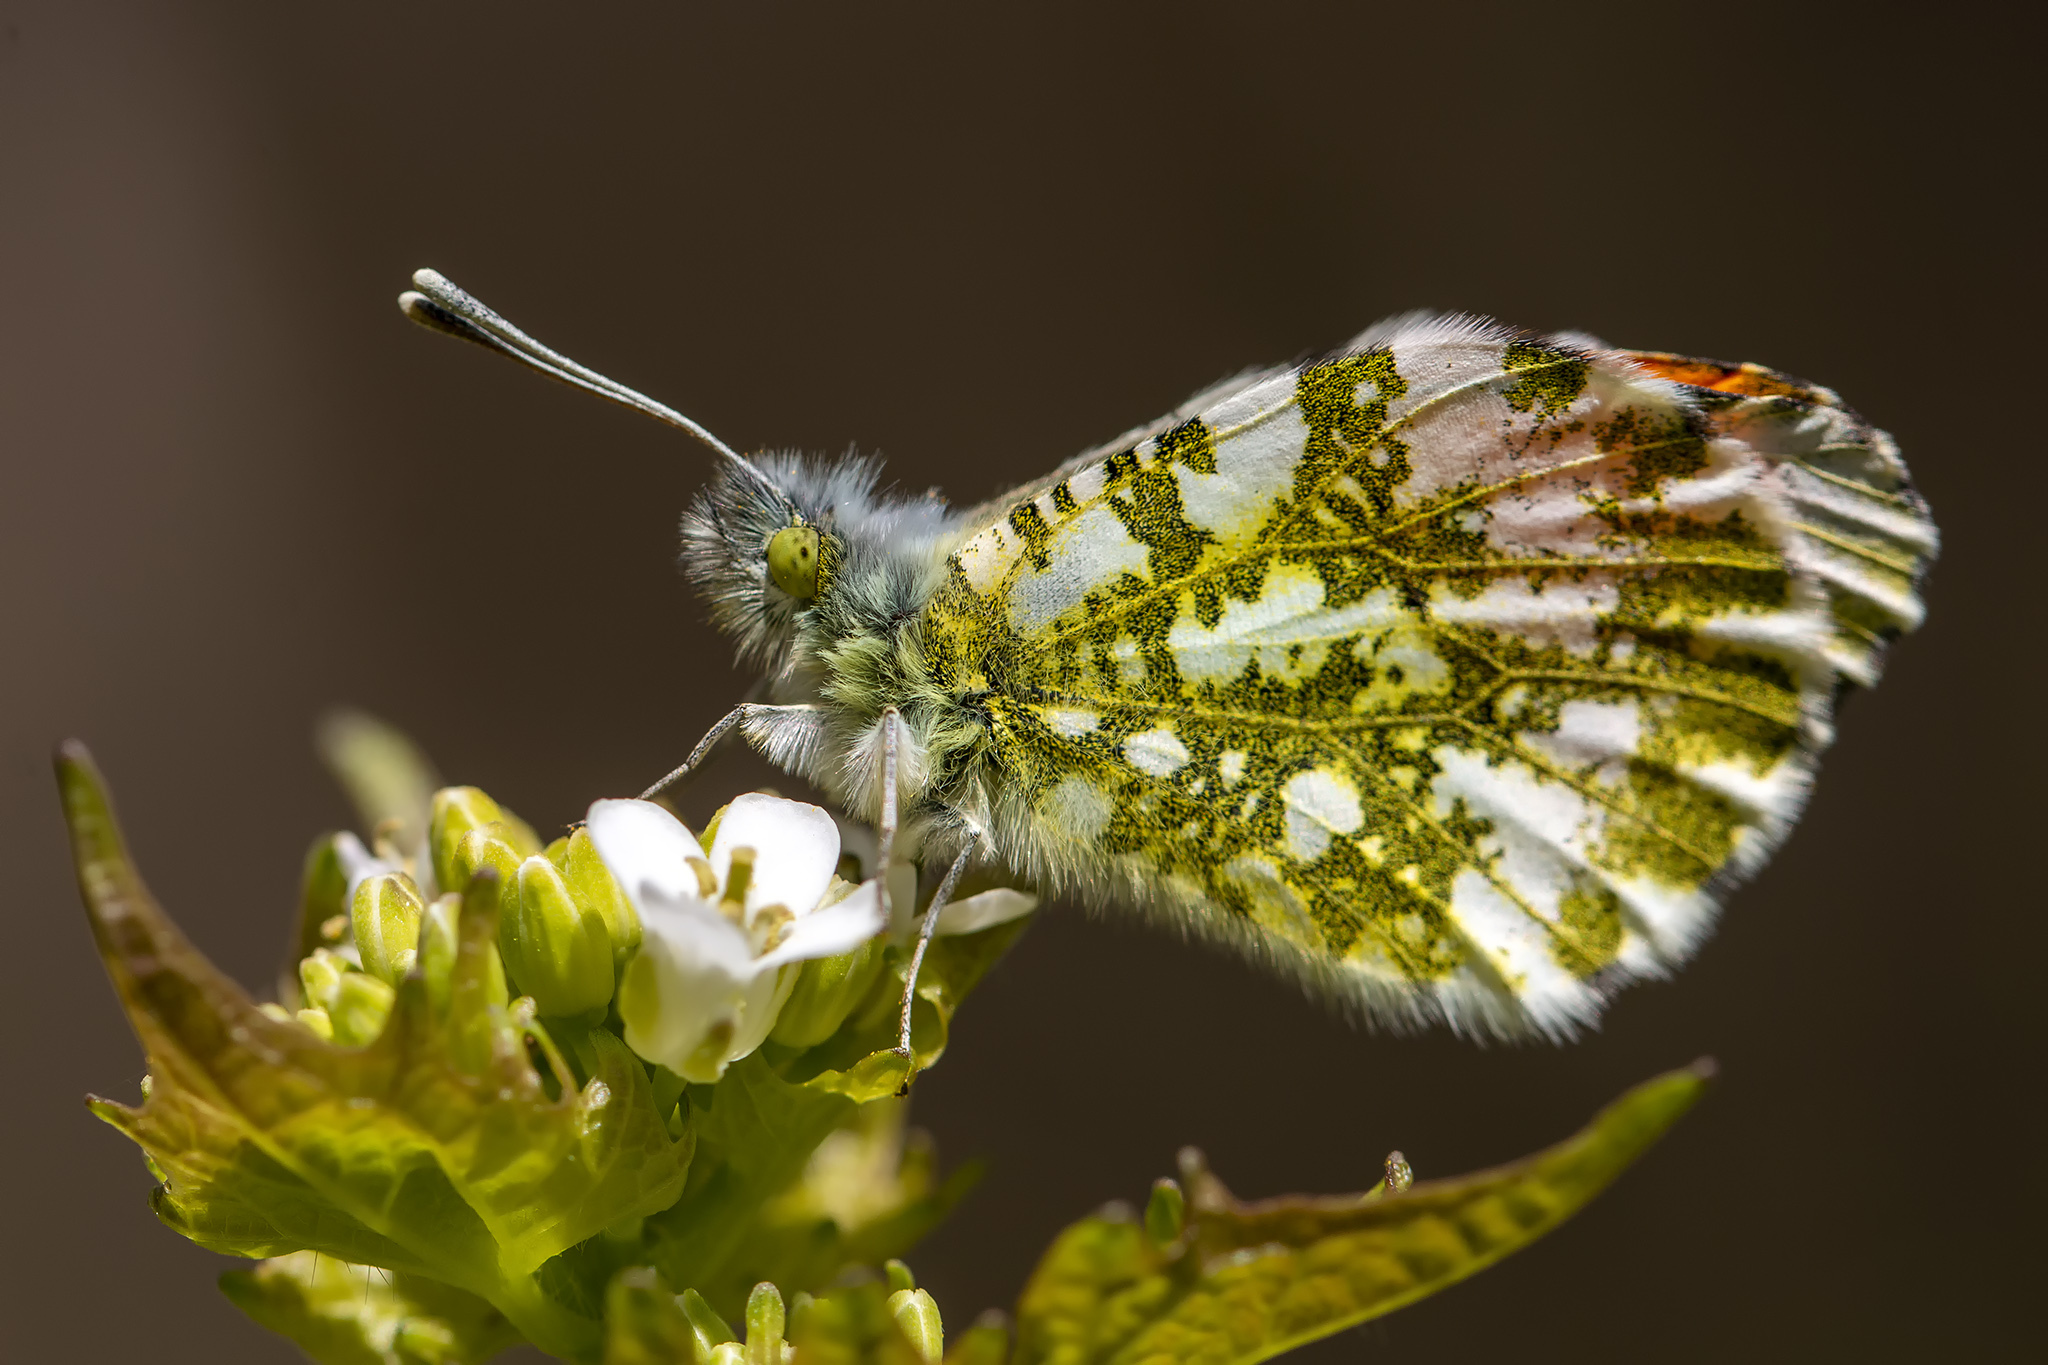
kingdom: Animalia
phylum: Arthropoda
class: Insecta
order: Lepidoptera
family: Pieridae
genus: Anthocharis
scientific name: Anthocharis cardamines
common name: Orange-tip
